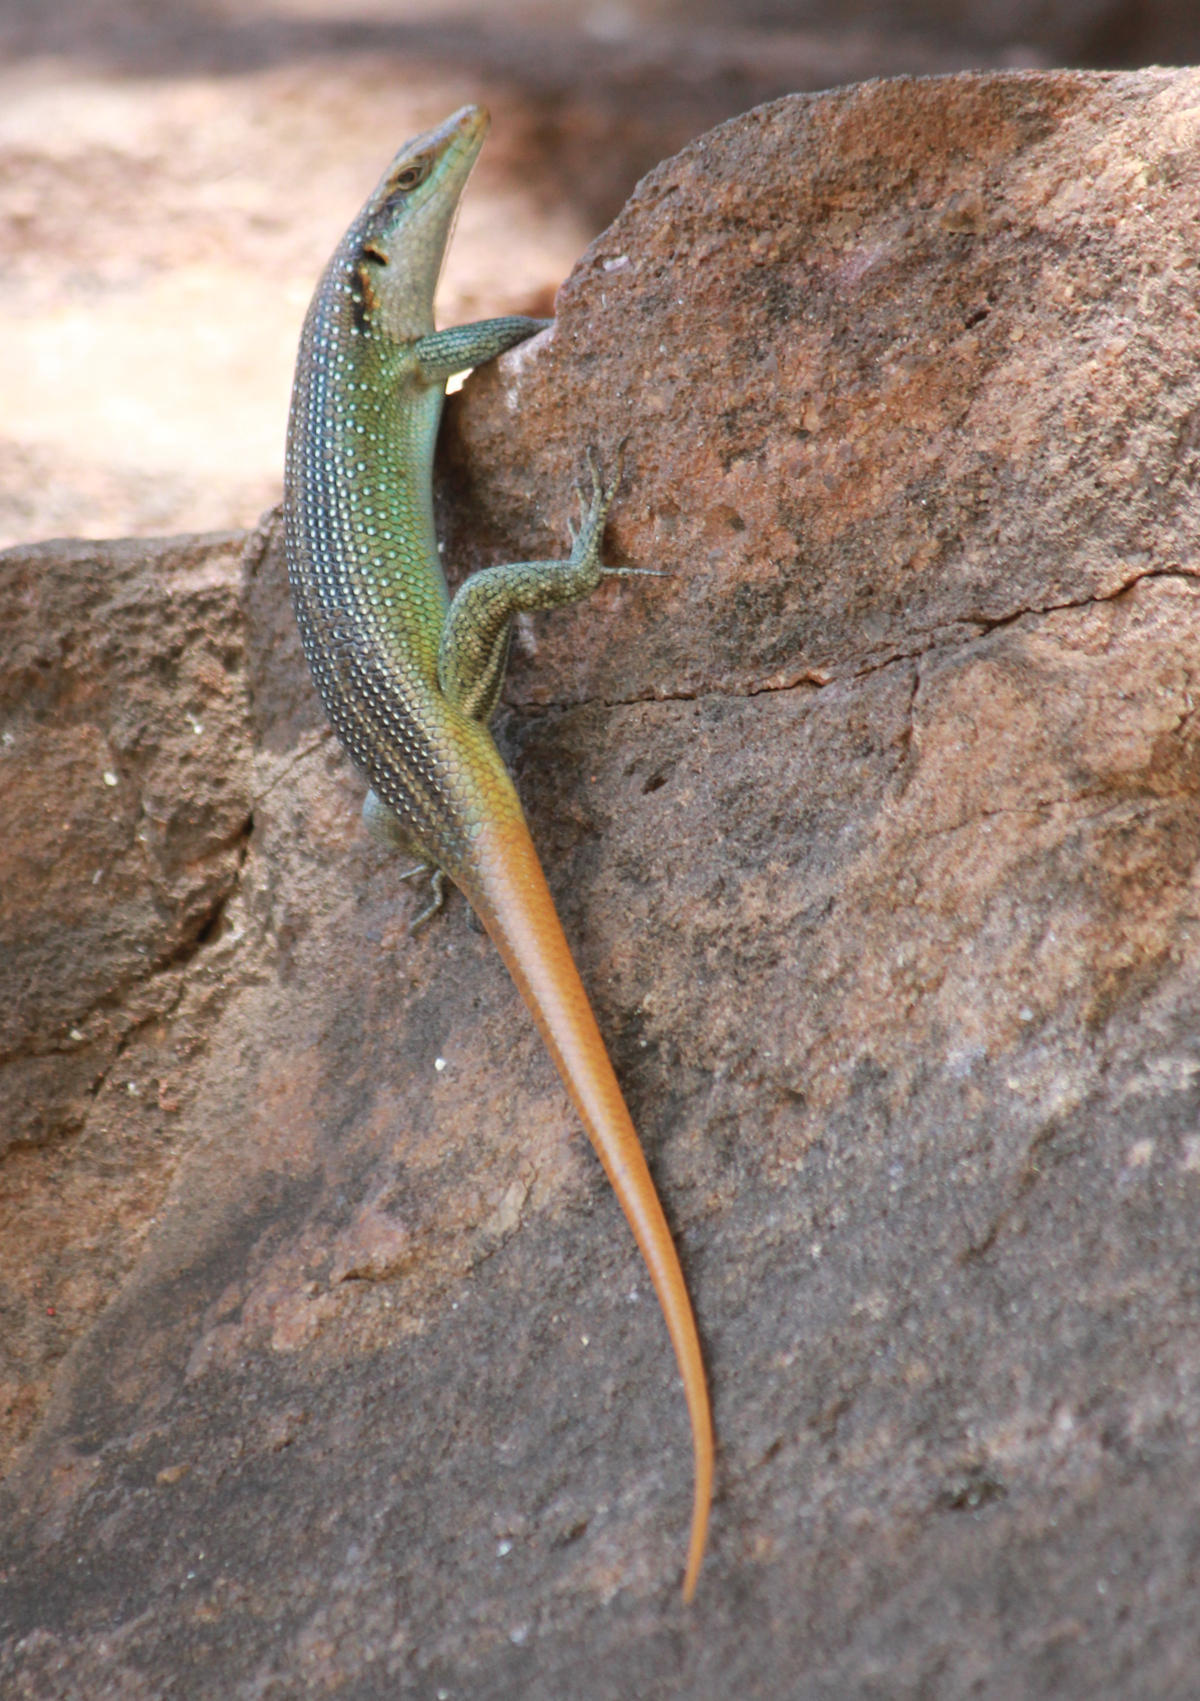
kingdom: Animalia
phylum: Chordata
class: Squamata
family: Scincidae
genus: Trachylepis
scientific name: Trachylepis margaritifera
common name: Rainbow skink
